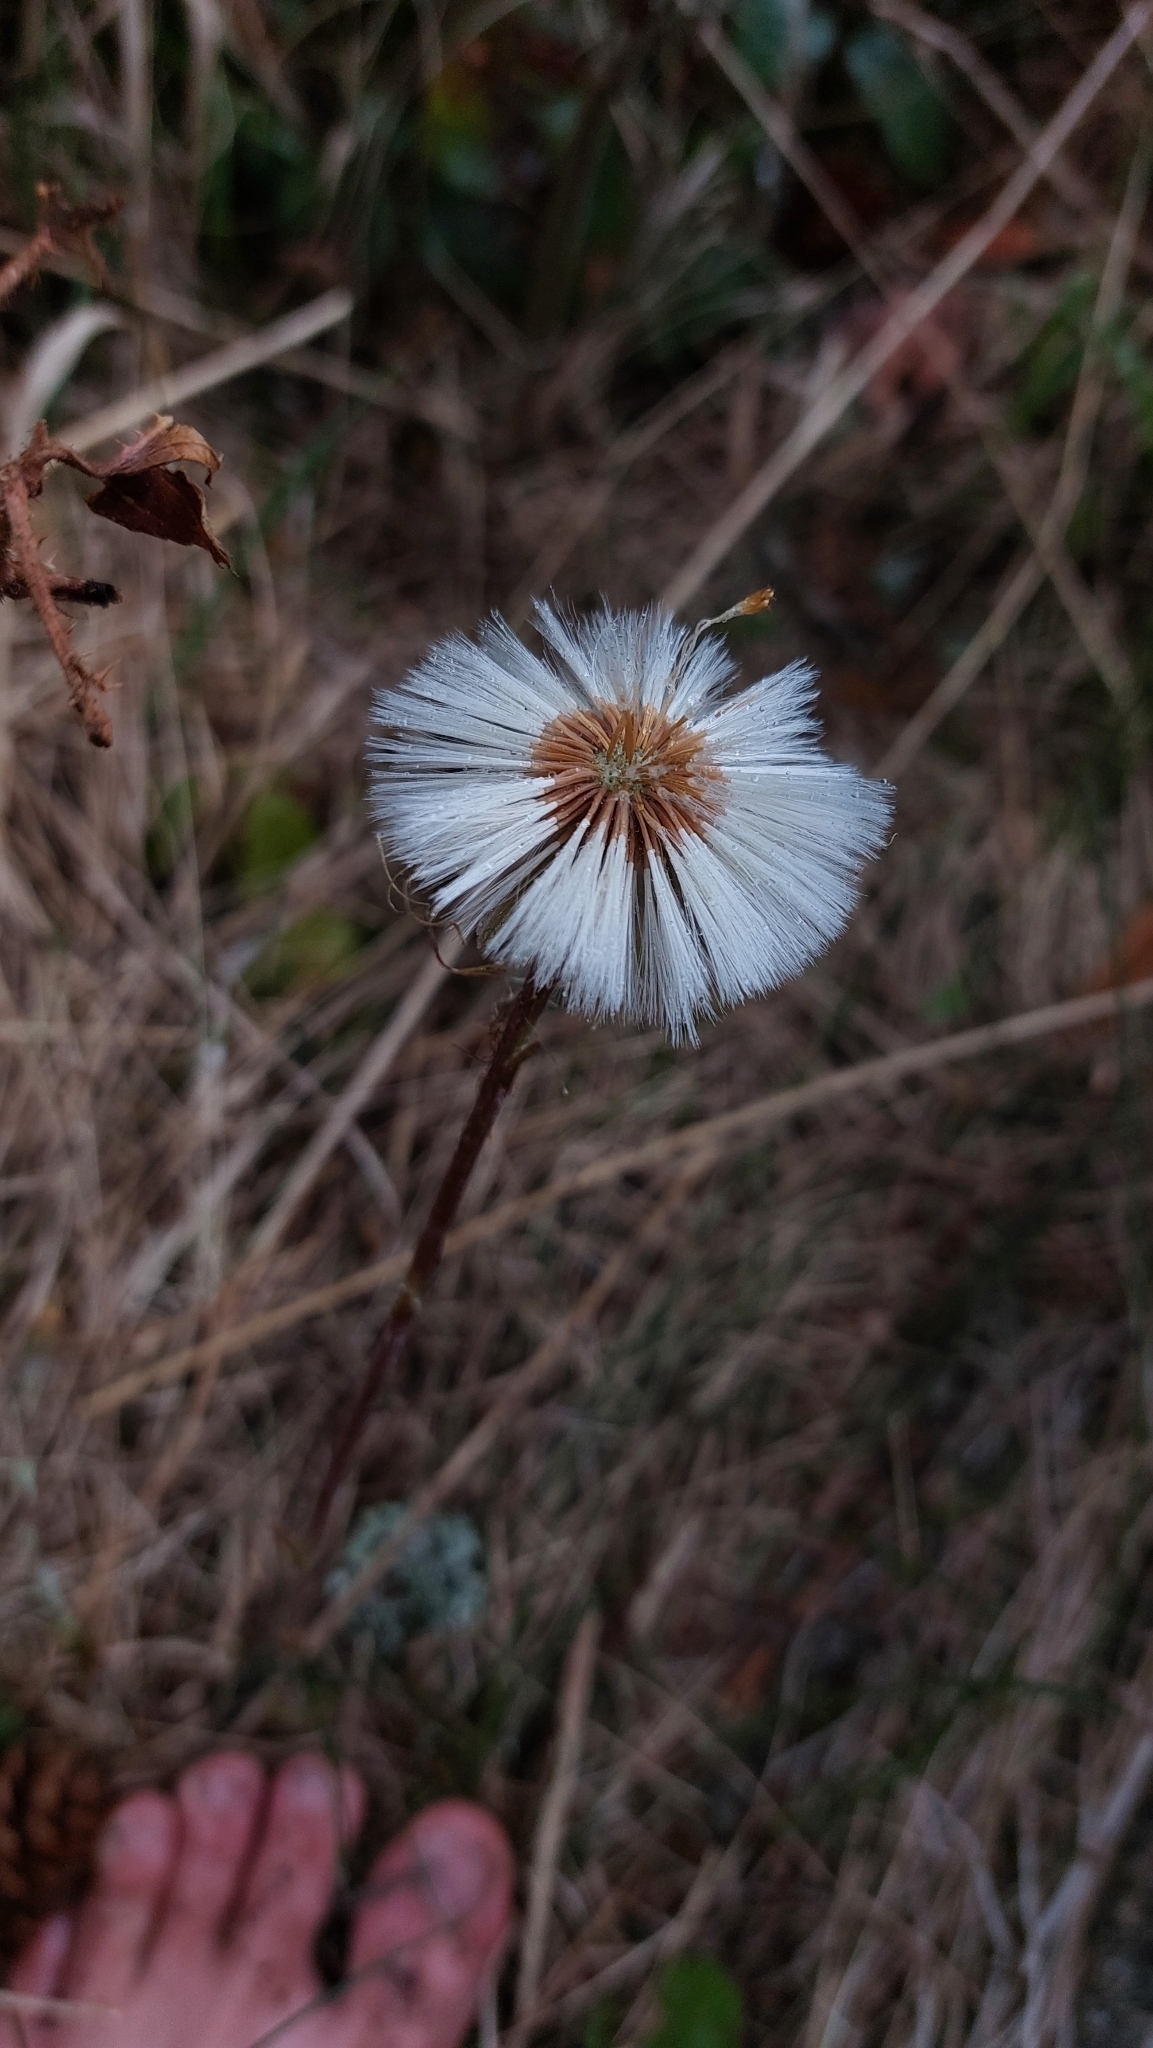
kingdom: Plantae
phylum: Tracheophyta
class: Magnoliopsida
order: Asterales
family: Asteraceae
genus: Tussilago
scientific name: Tussilago farfara
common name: Coltsfoot
